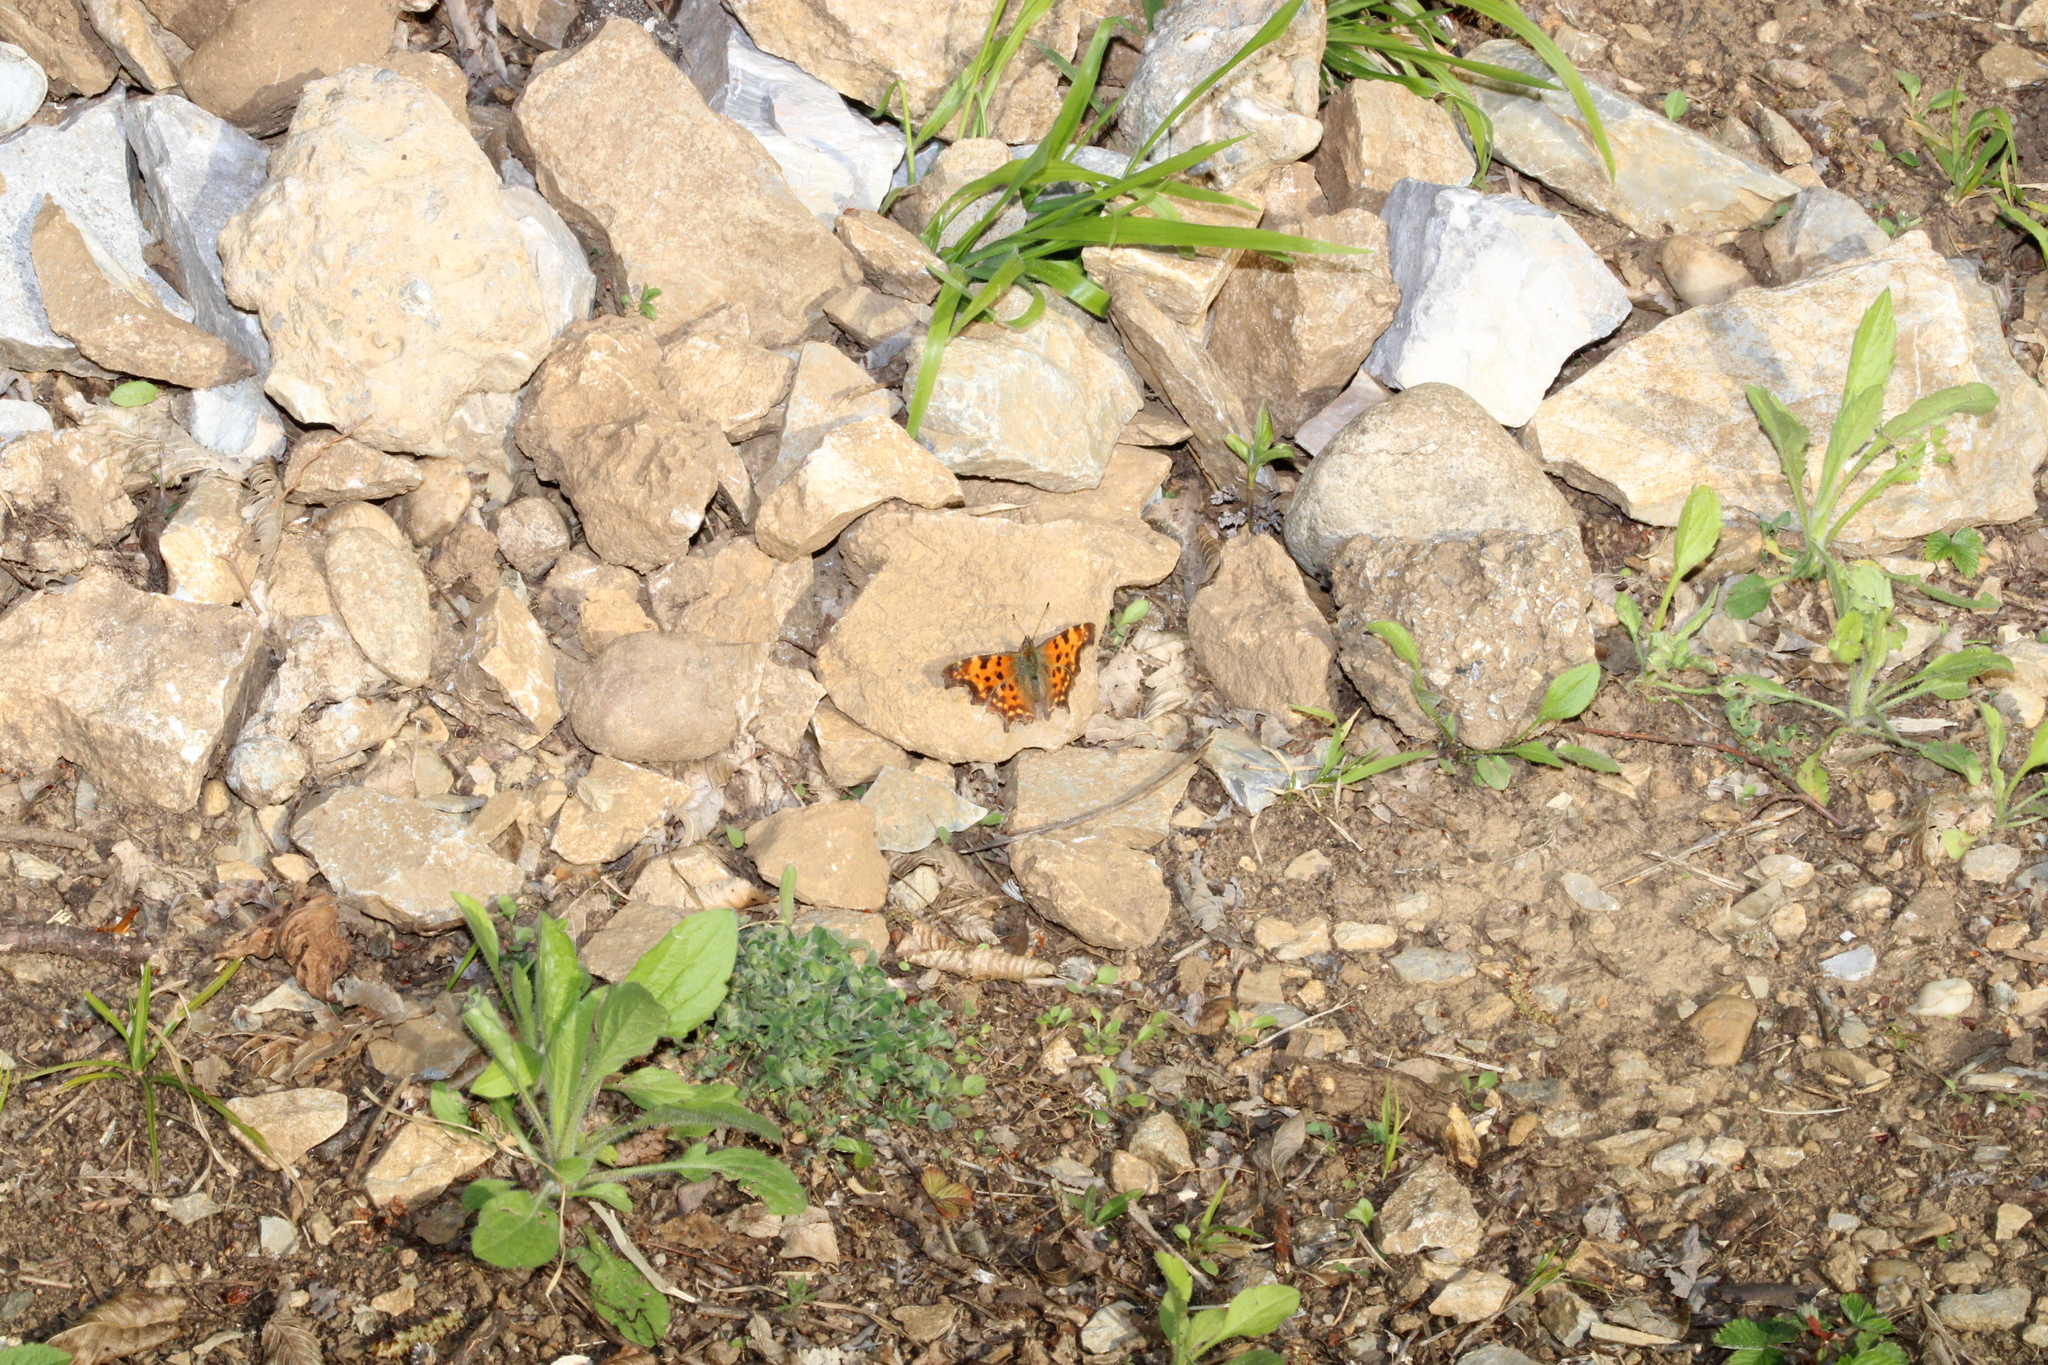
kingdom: Animalia
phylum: Arthropoda
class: Insecta
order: Lepidoptera
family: Nymphalidae
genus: Polygonia
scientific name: Polygonia c-album
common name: Comma
